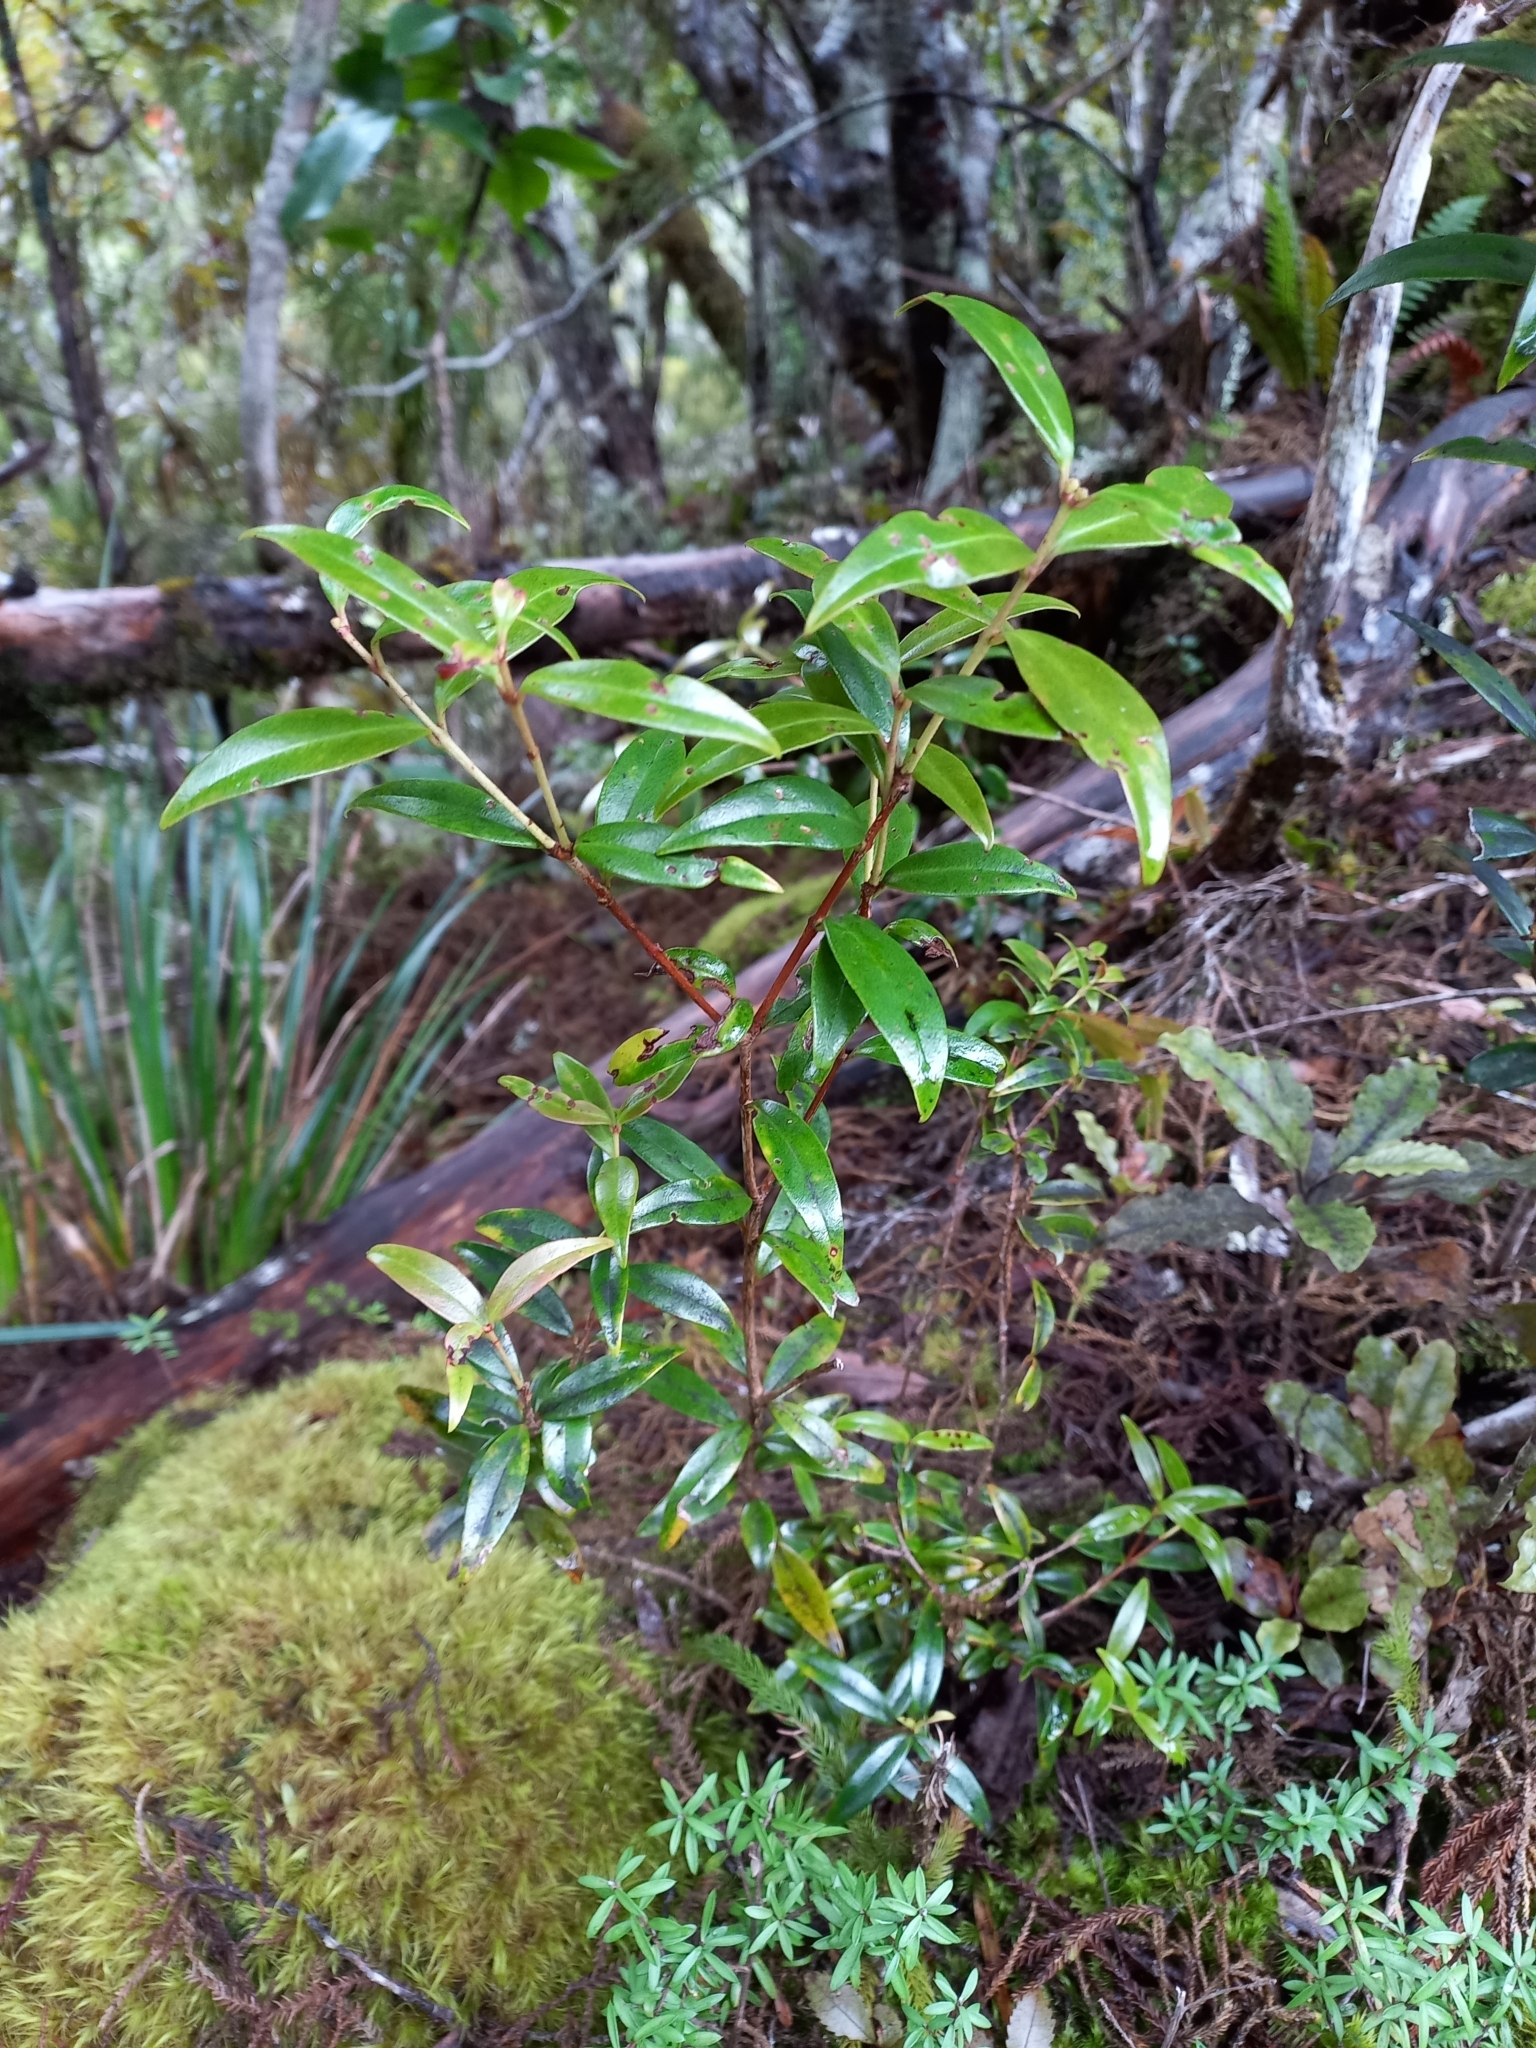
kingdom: Plantae
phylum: Tracheophyta
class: Magnoliopsida
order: Myrtales
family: Myrtaceae
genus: Metrosideros
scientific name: Metrosideros umbellata
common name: Southern rata
